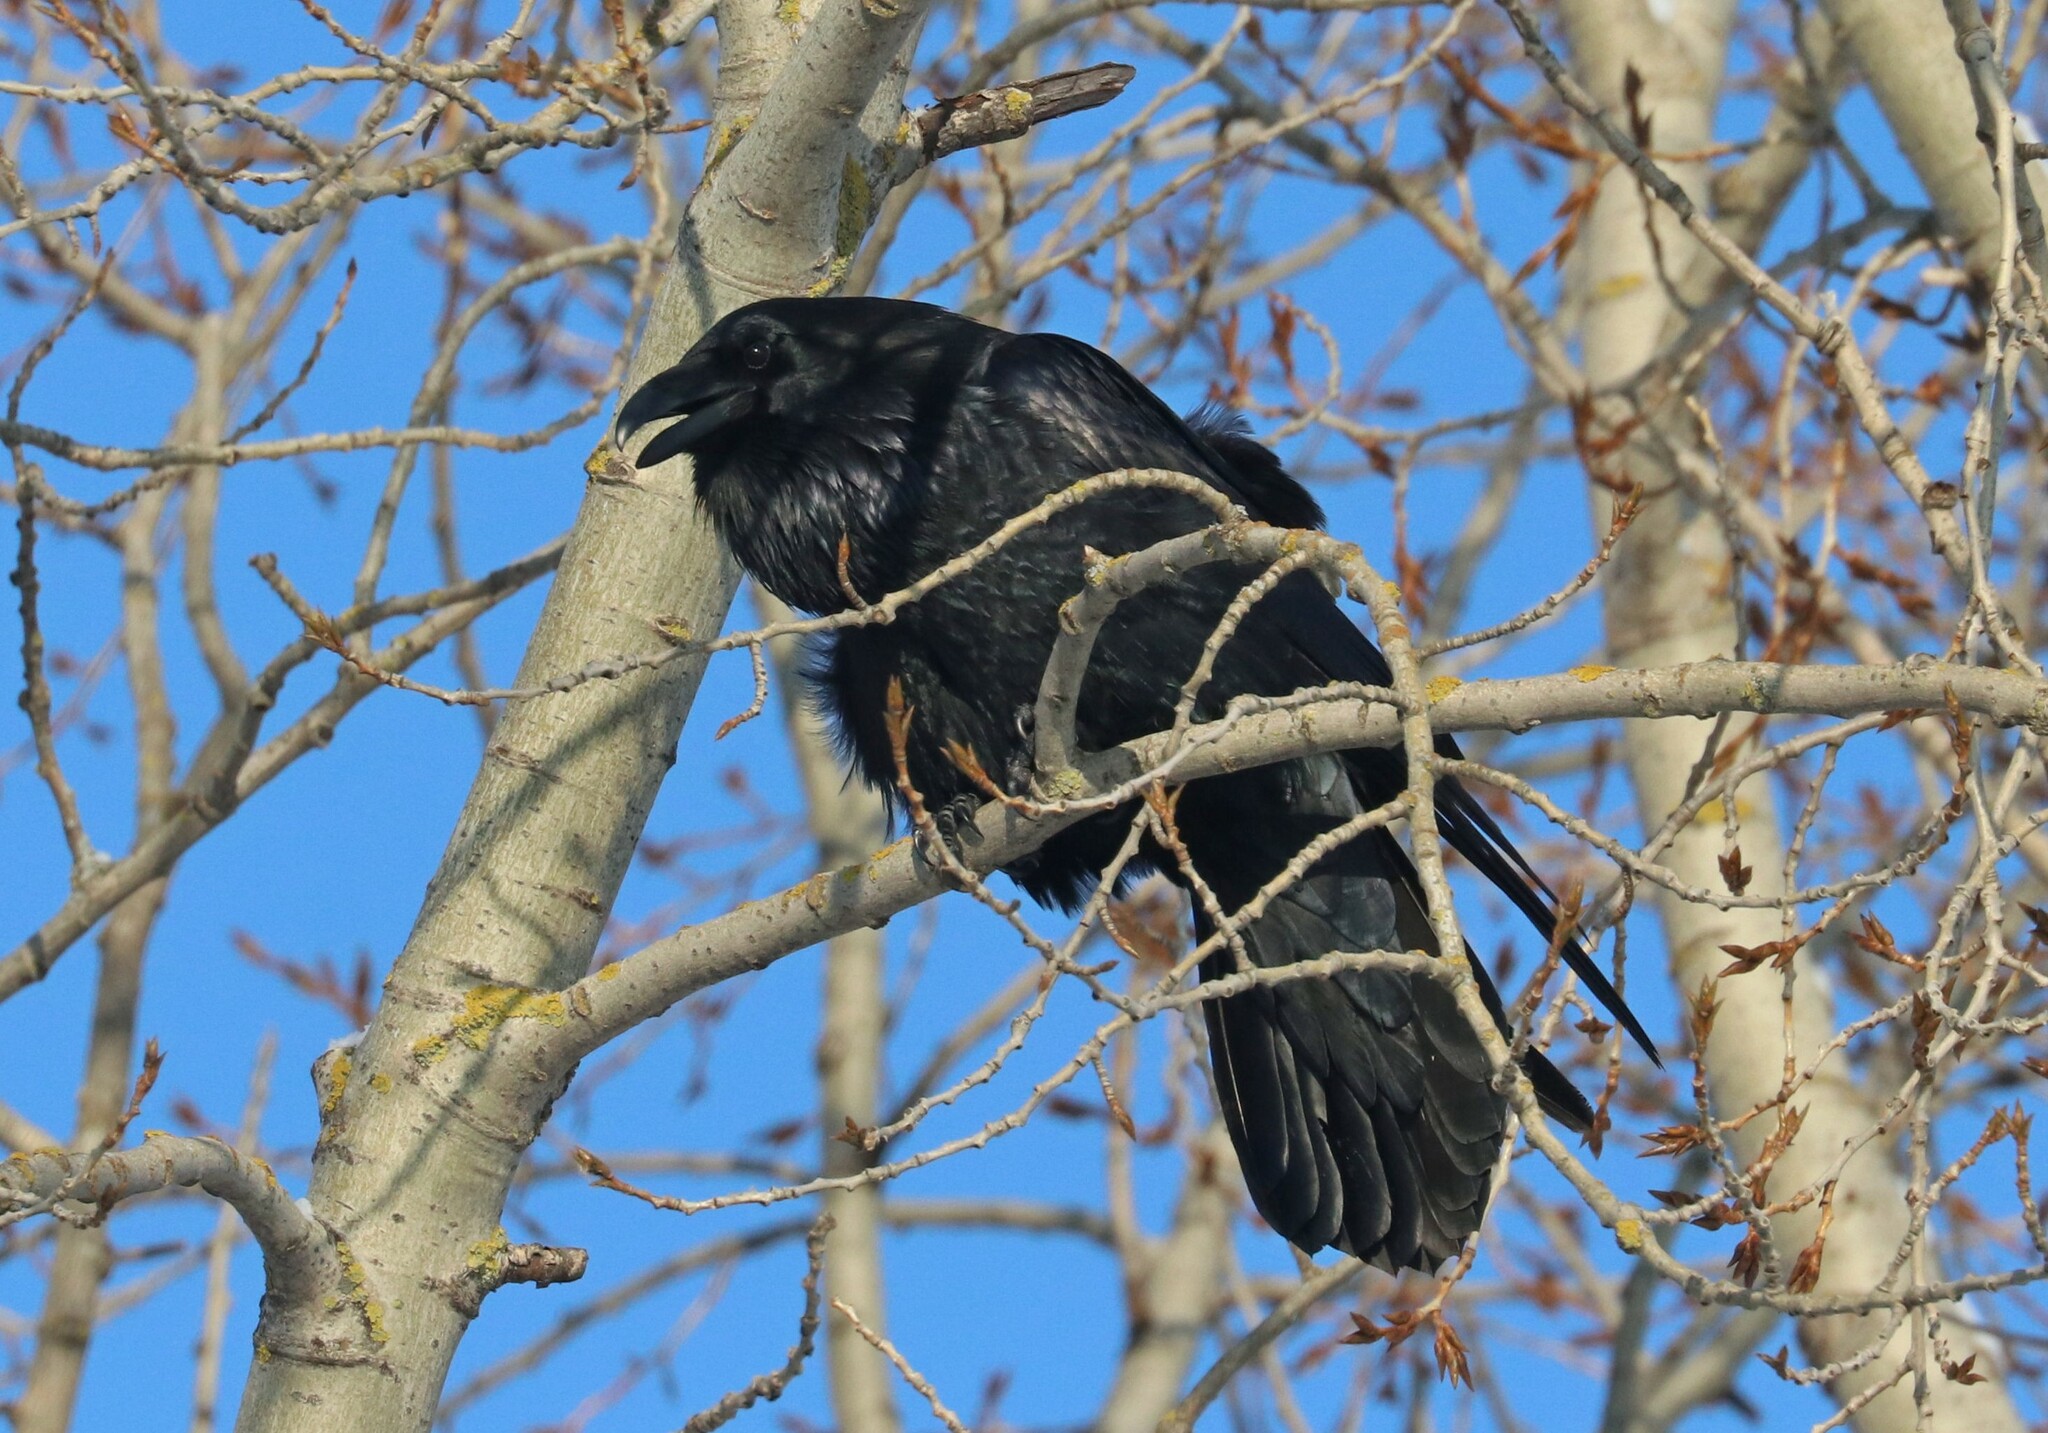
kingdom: Animalia
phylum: Chordata
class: Aves
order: Passeriformes
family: Corvidae
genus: Corvus
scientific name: Corvus corax
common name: Common raven
